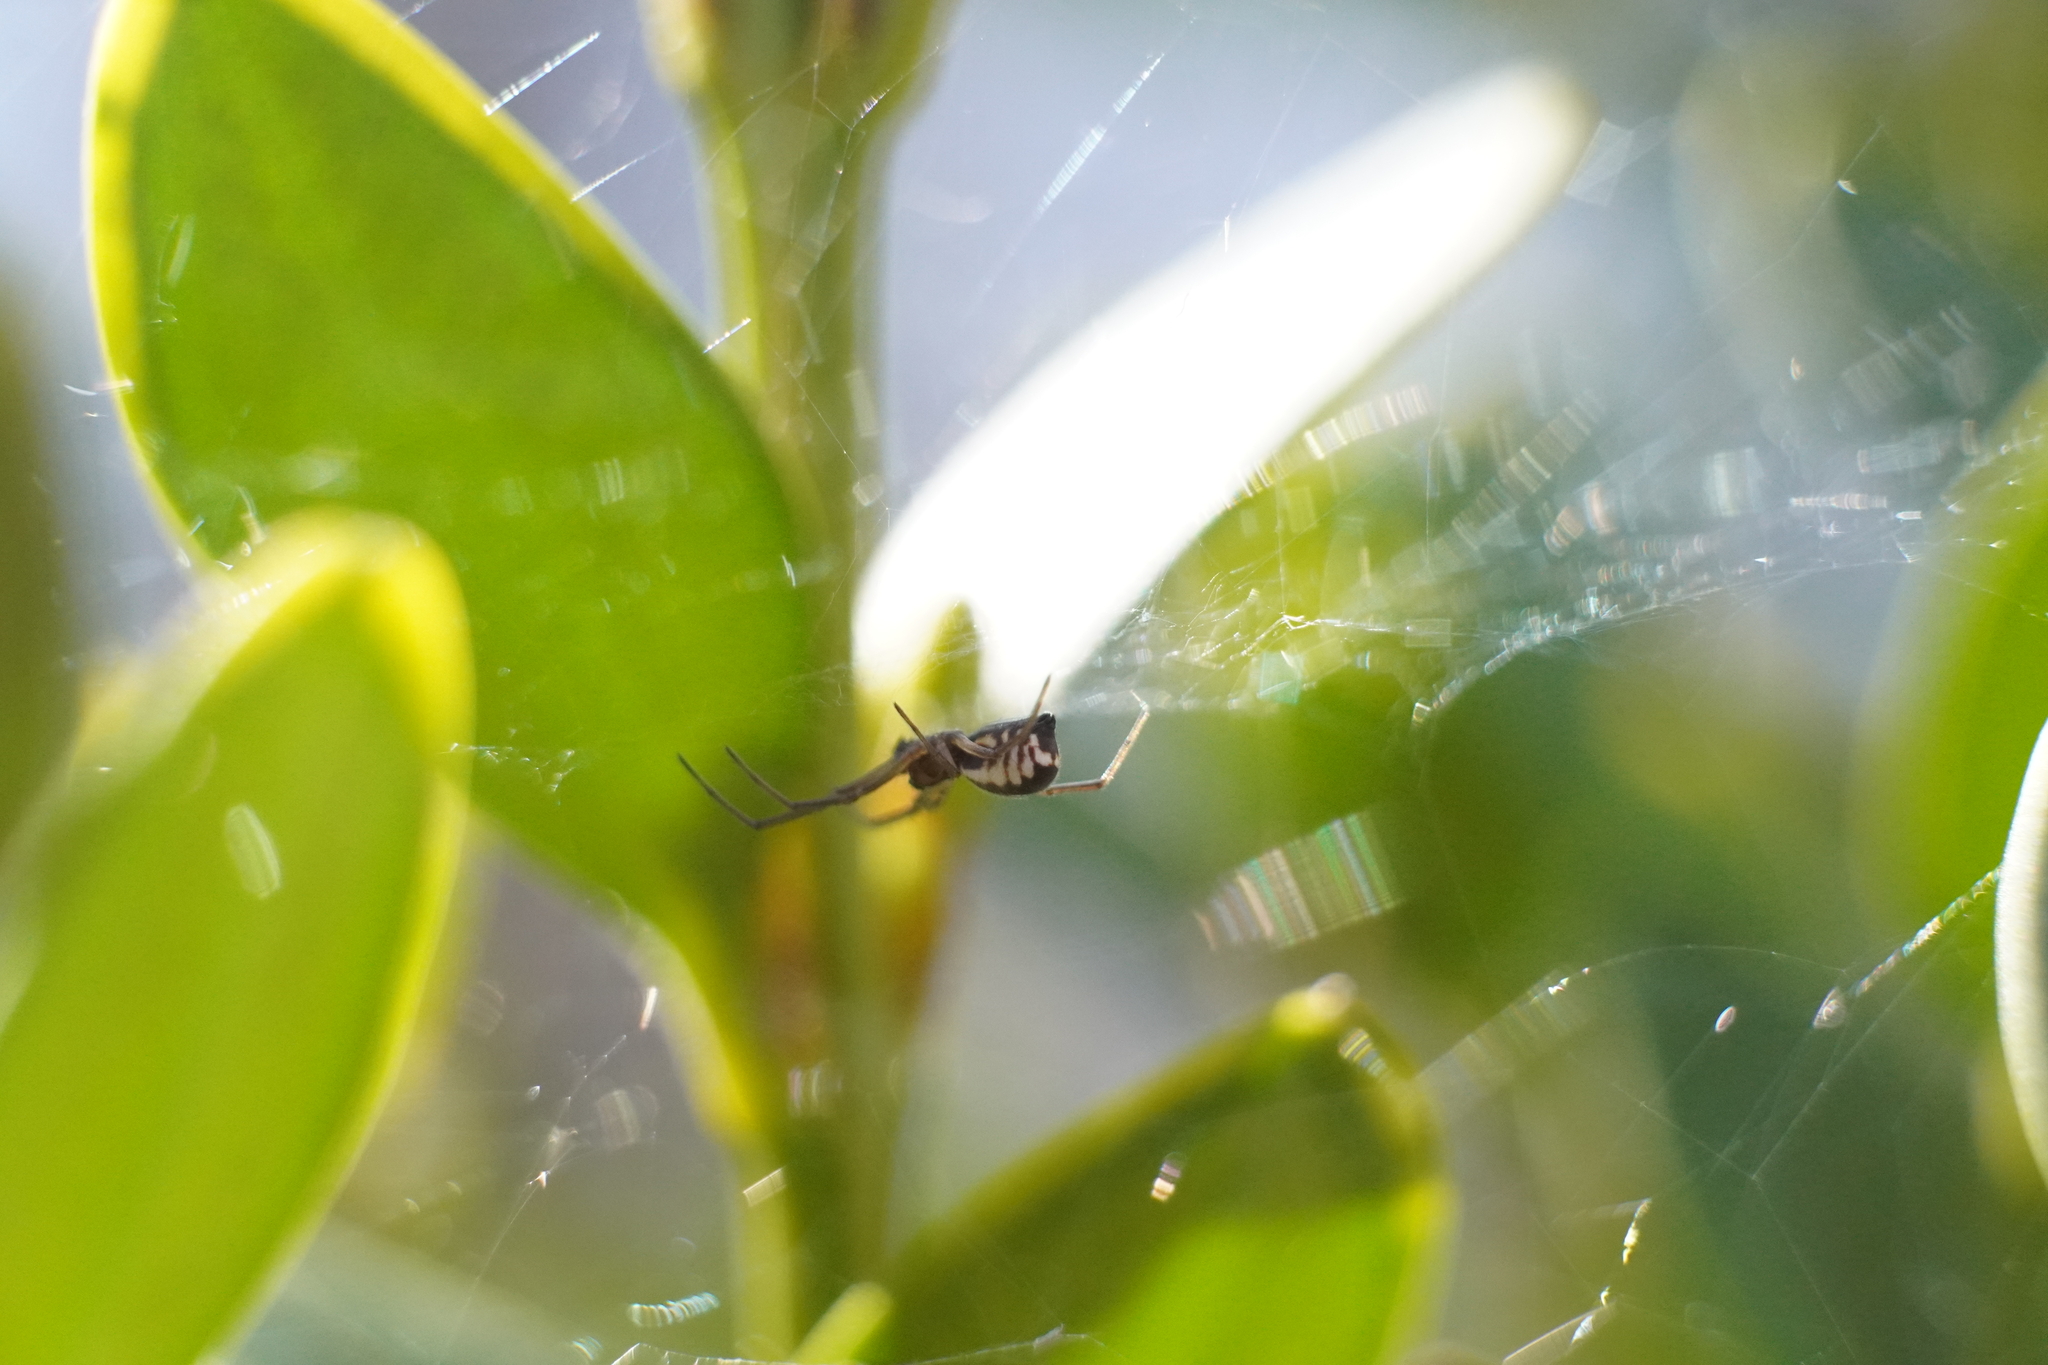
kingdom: Animalia
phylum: Arthropoda
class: Arachnida
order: Araneae
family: Linyphiidae
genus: Frontinella
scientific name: Frontinella pyramitela
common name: Bowl-and-doily spider
